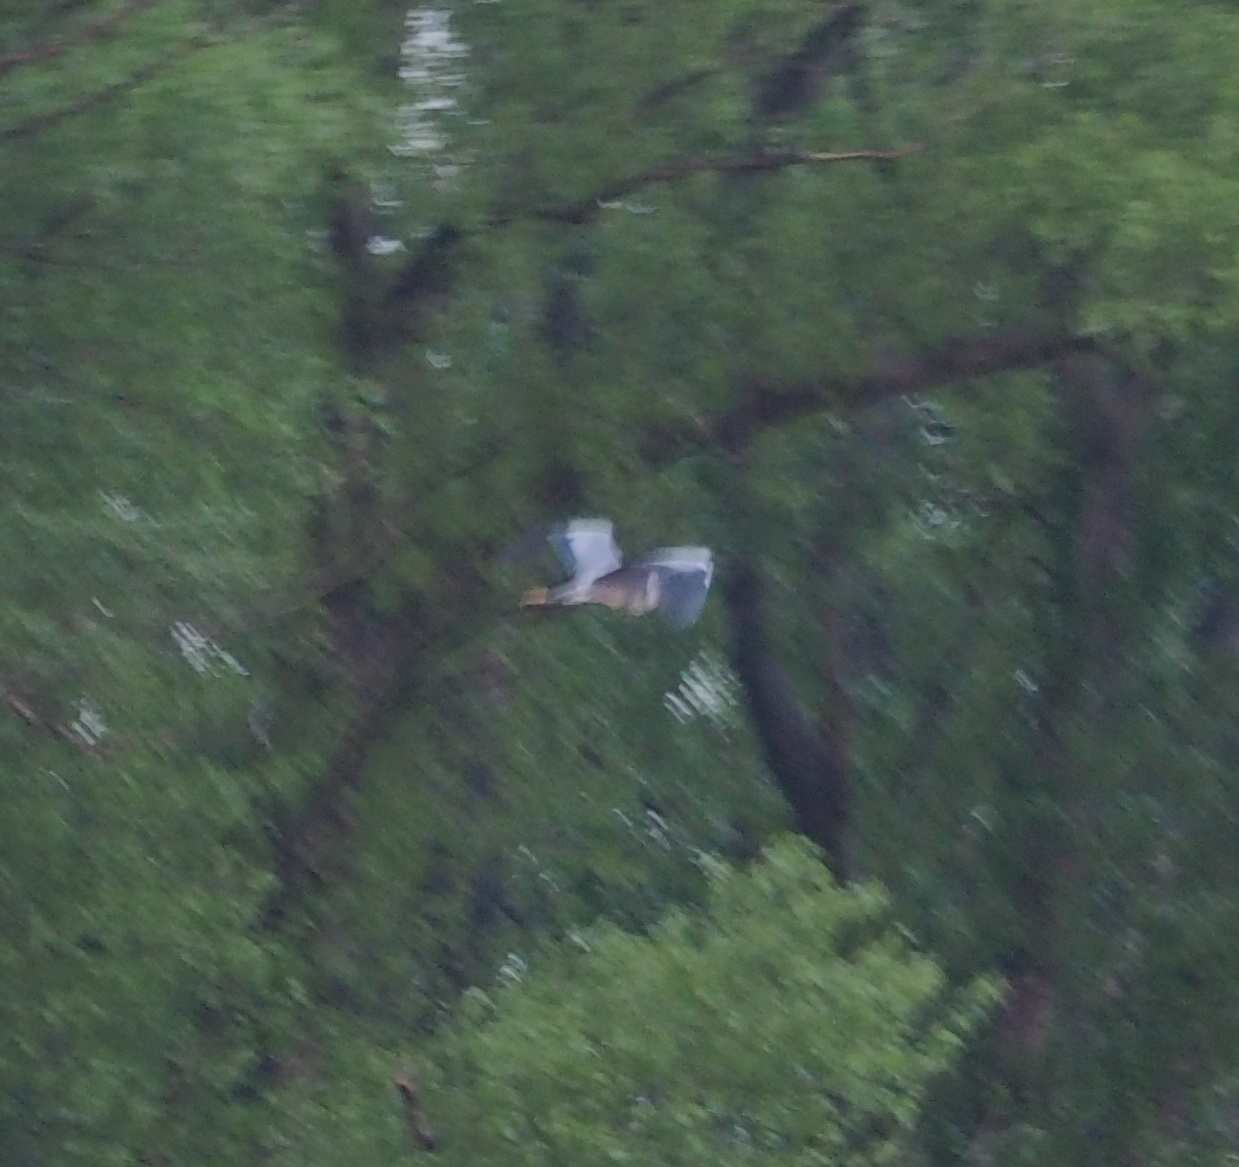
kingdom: Animalia
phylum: Chordata
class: Aves
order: Pelecaniformes
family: Ardeidae
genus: Ardea
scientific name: Ardea cinerea
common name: Grey heron
